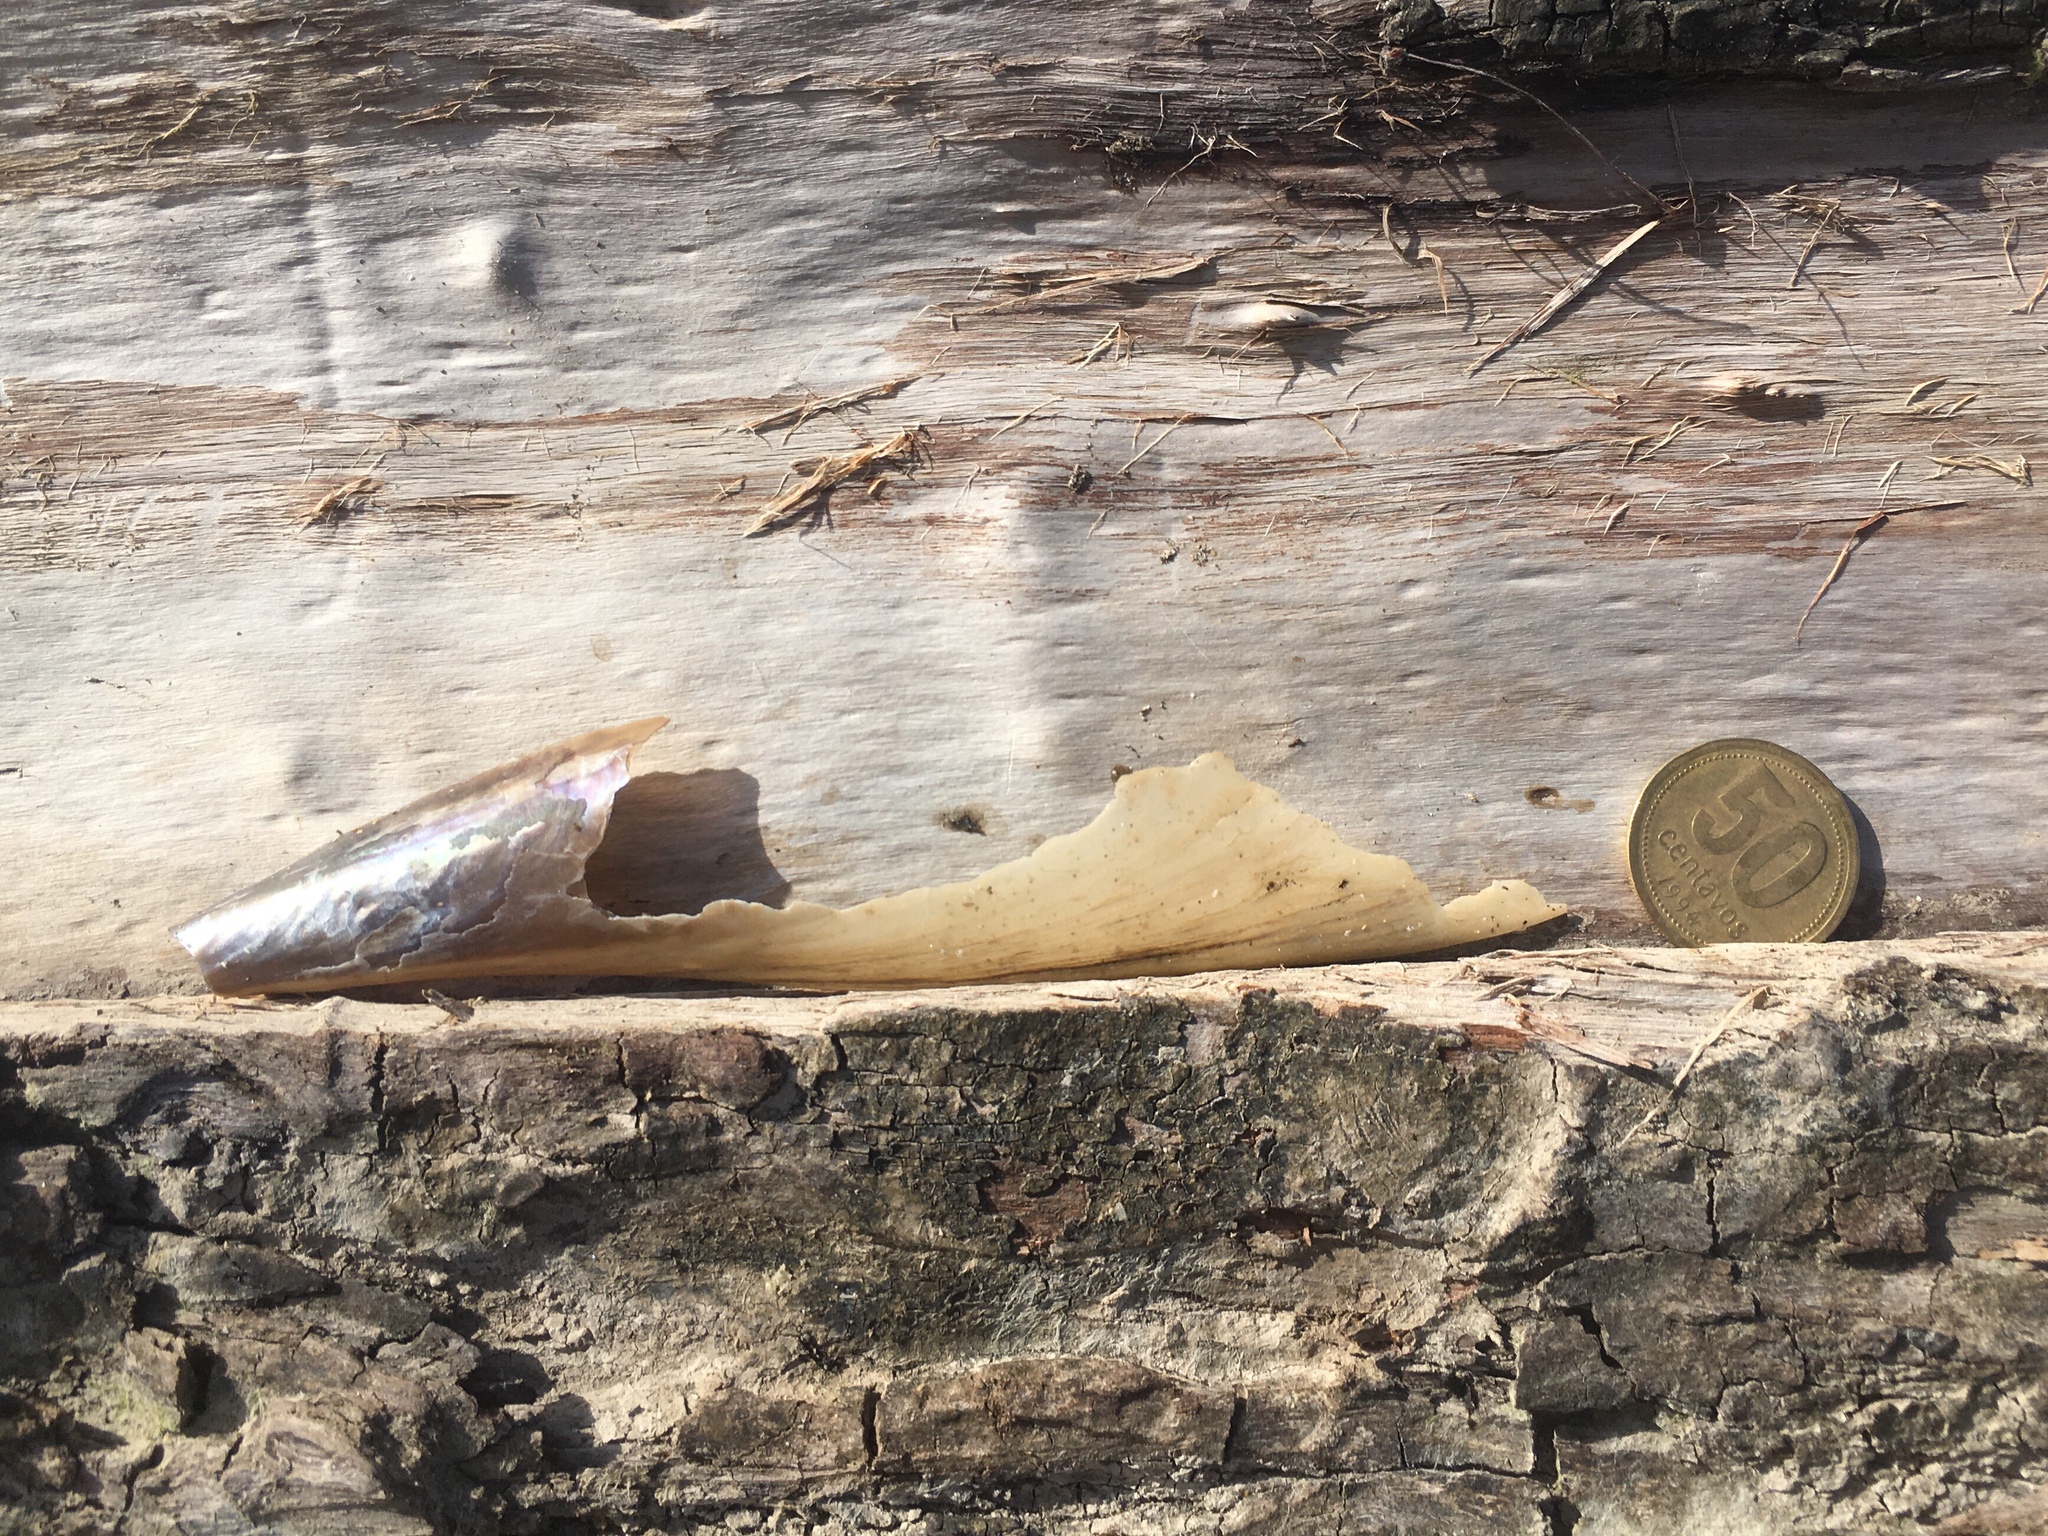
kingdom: Animalia
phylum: Mollusca
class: Bivalvia
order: Ostreida
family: Pinnidae
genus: Atrina
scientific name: Atrina seminuda
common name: Half-naked penshell
